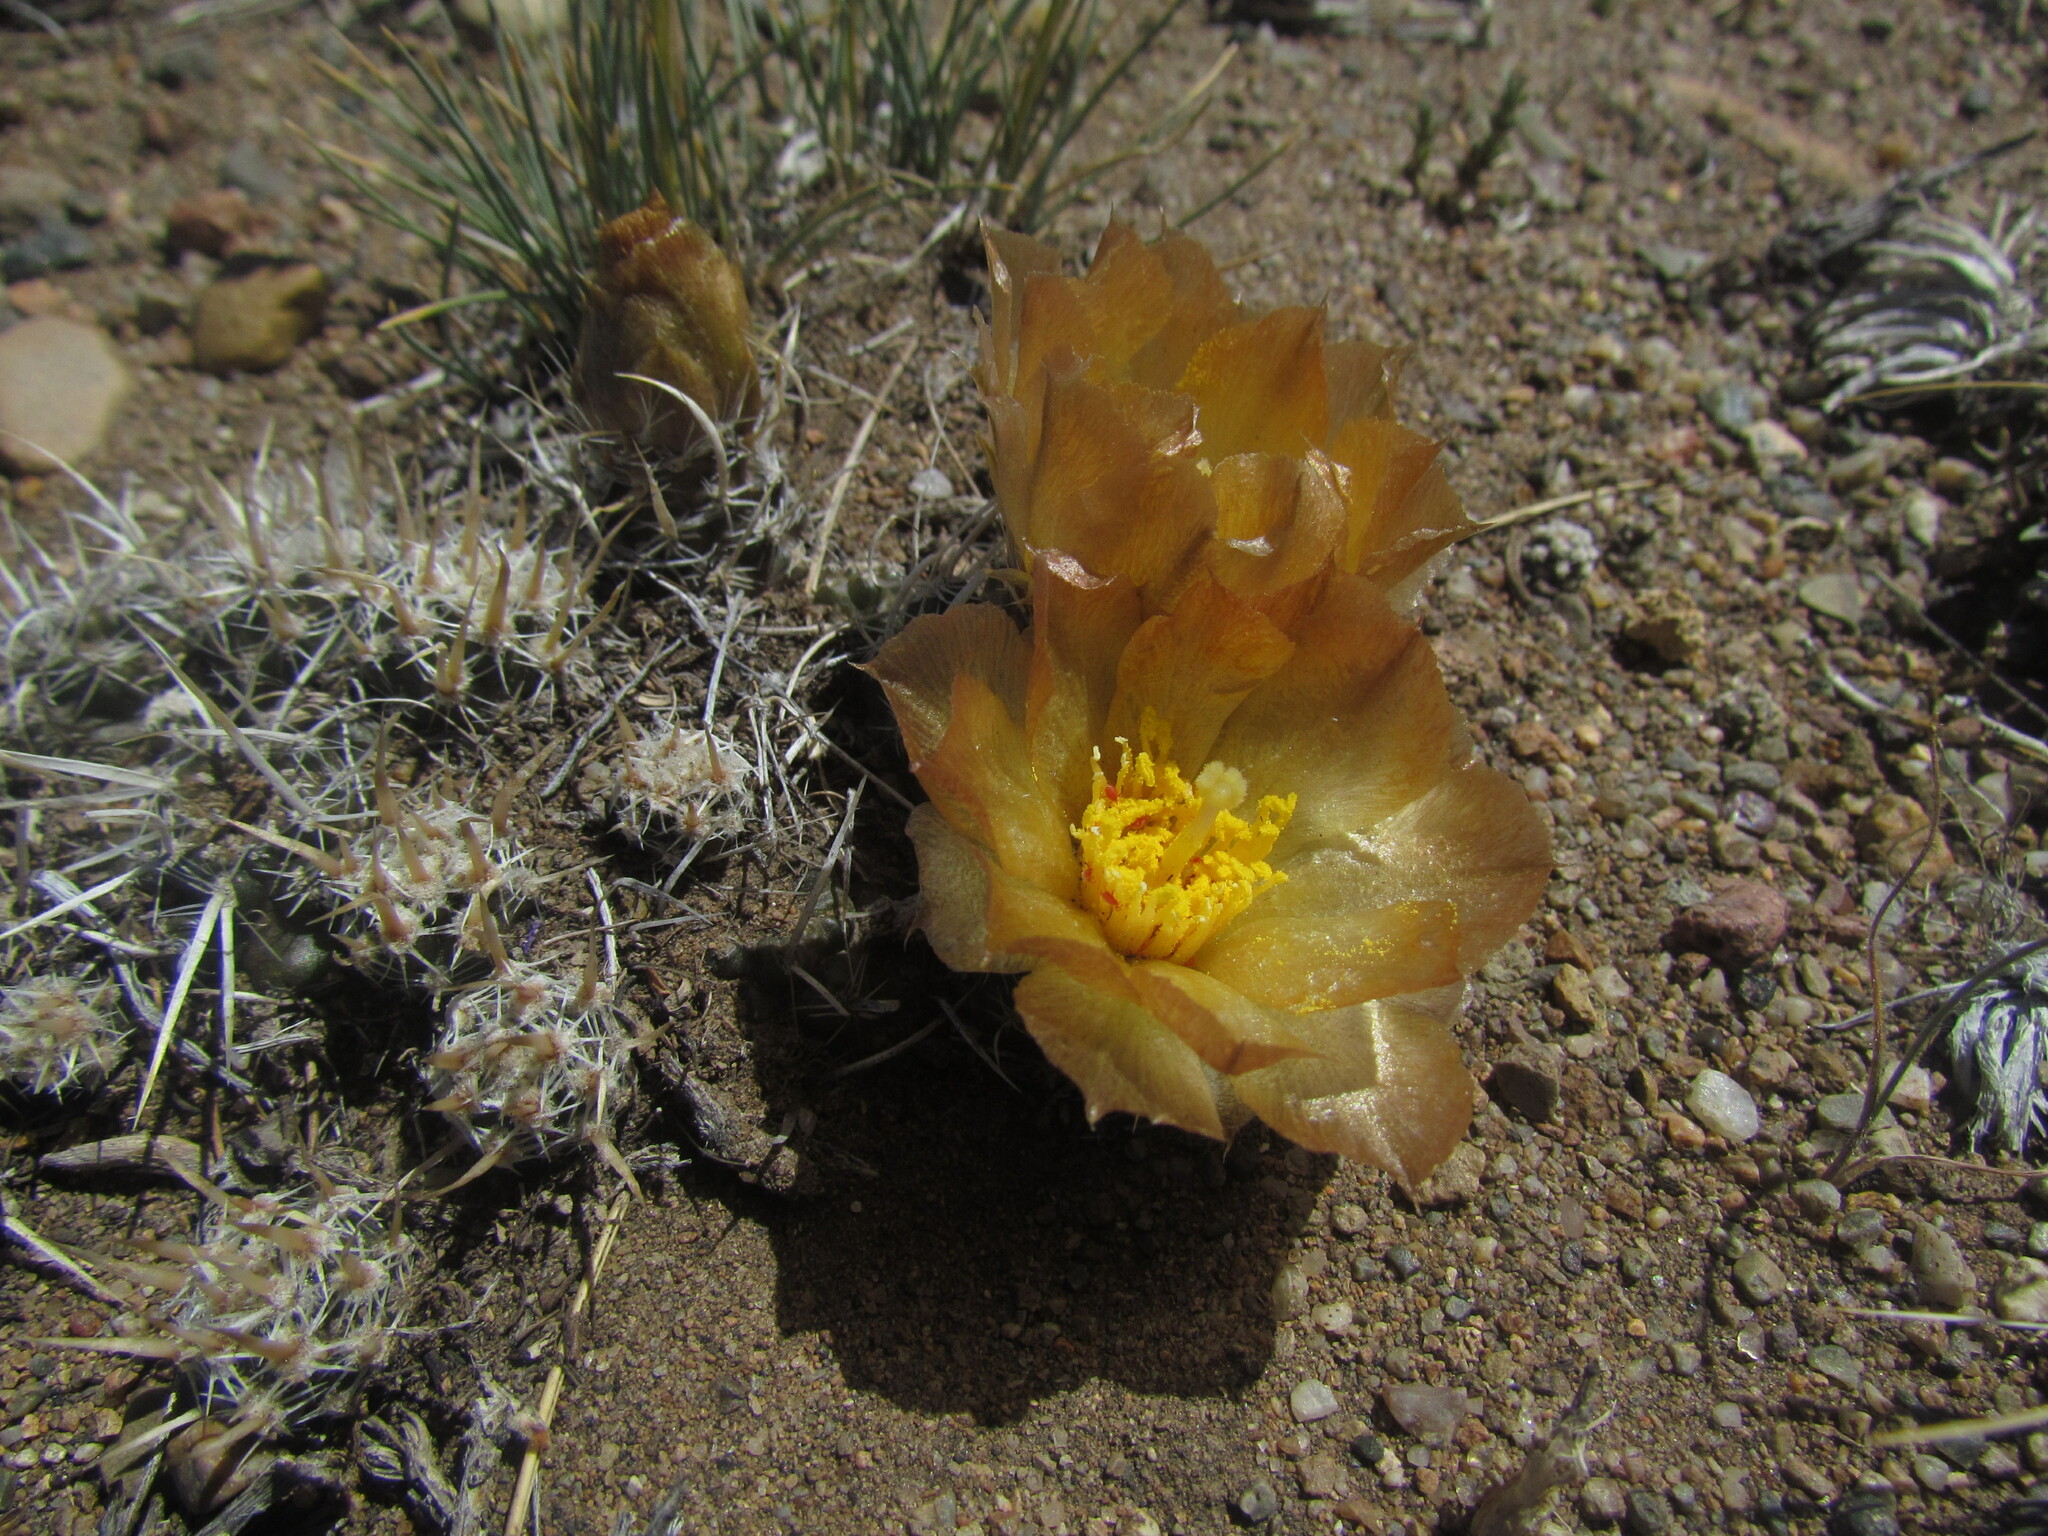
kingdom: Plantae
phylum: Tracheophyta
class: Magnoliopsida
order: Caryophyllales
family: Cactaceae
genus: Pterocactus
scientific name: Pterocactus australis
